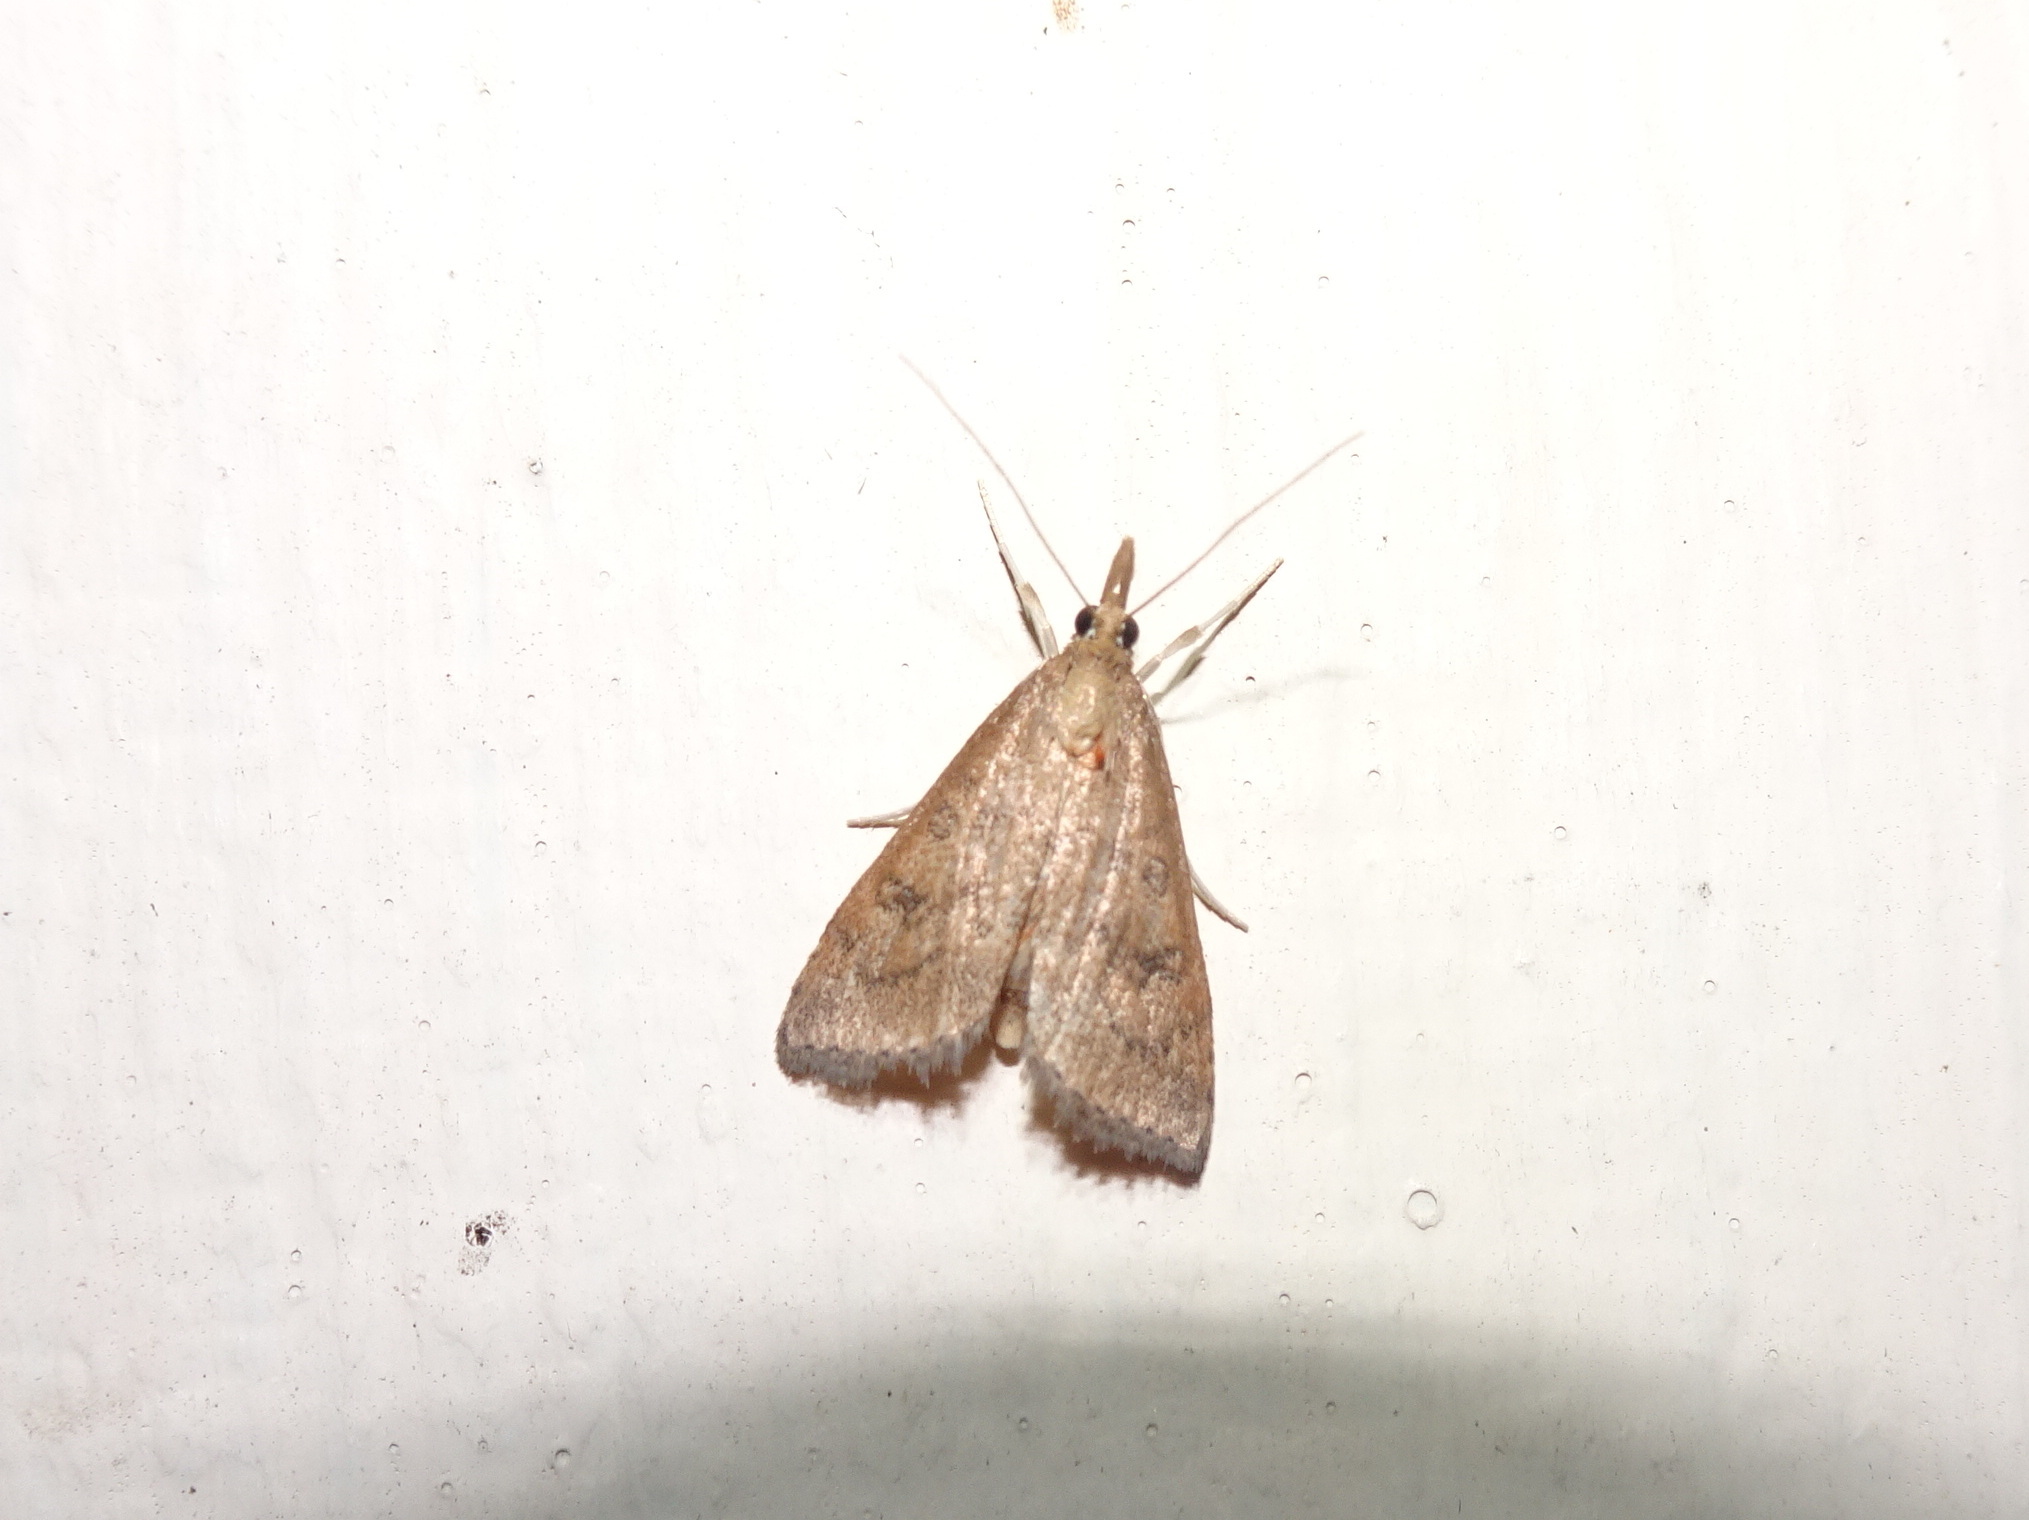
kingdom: Animalia
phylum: Arthropoda
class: Insecta
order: Lepidoptera
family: Crambidae
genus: Udea
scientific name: Udea rubigalis
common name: Celery leaftier moth
